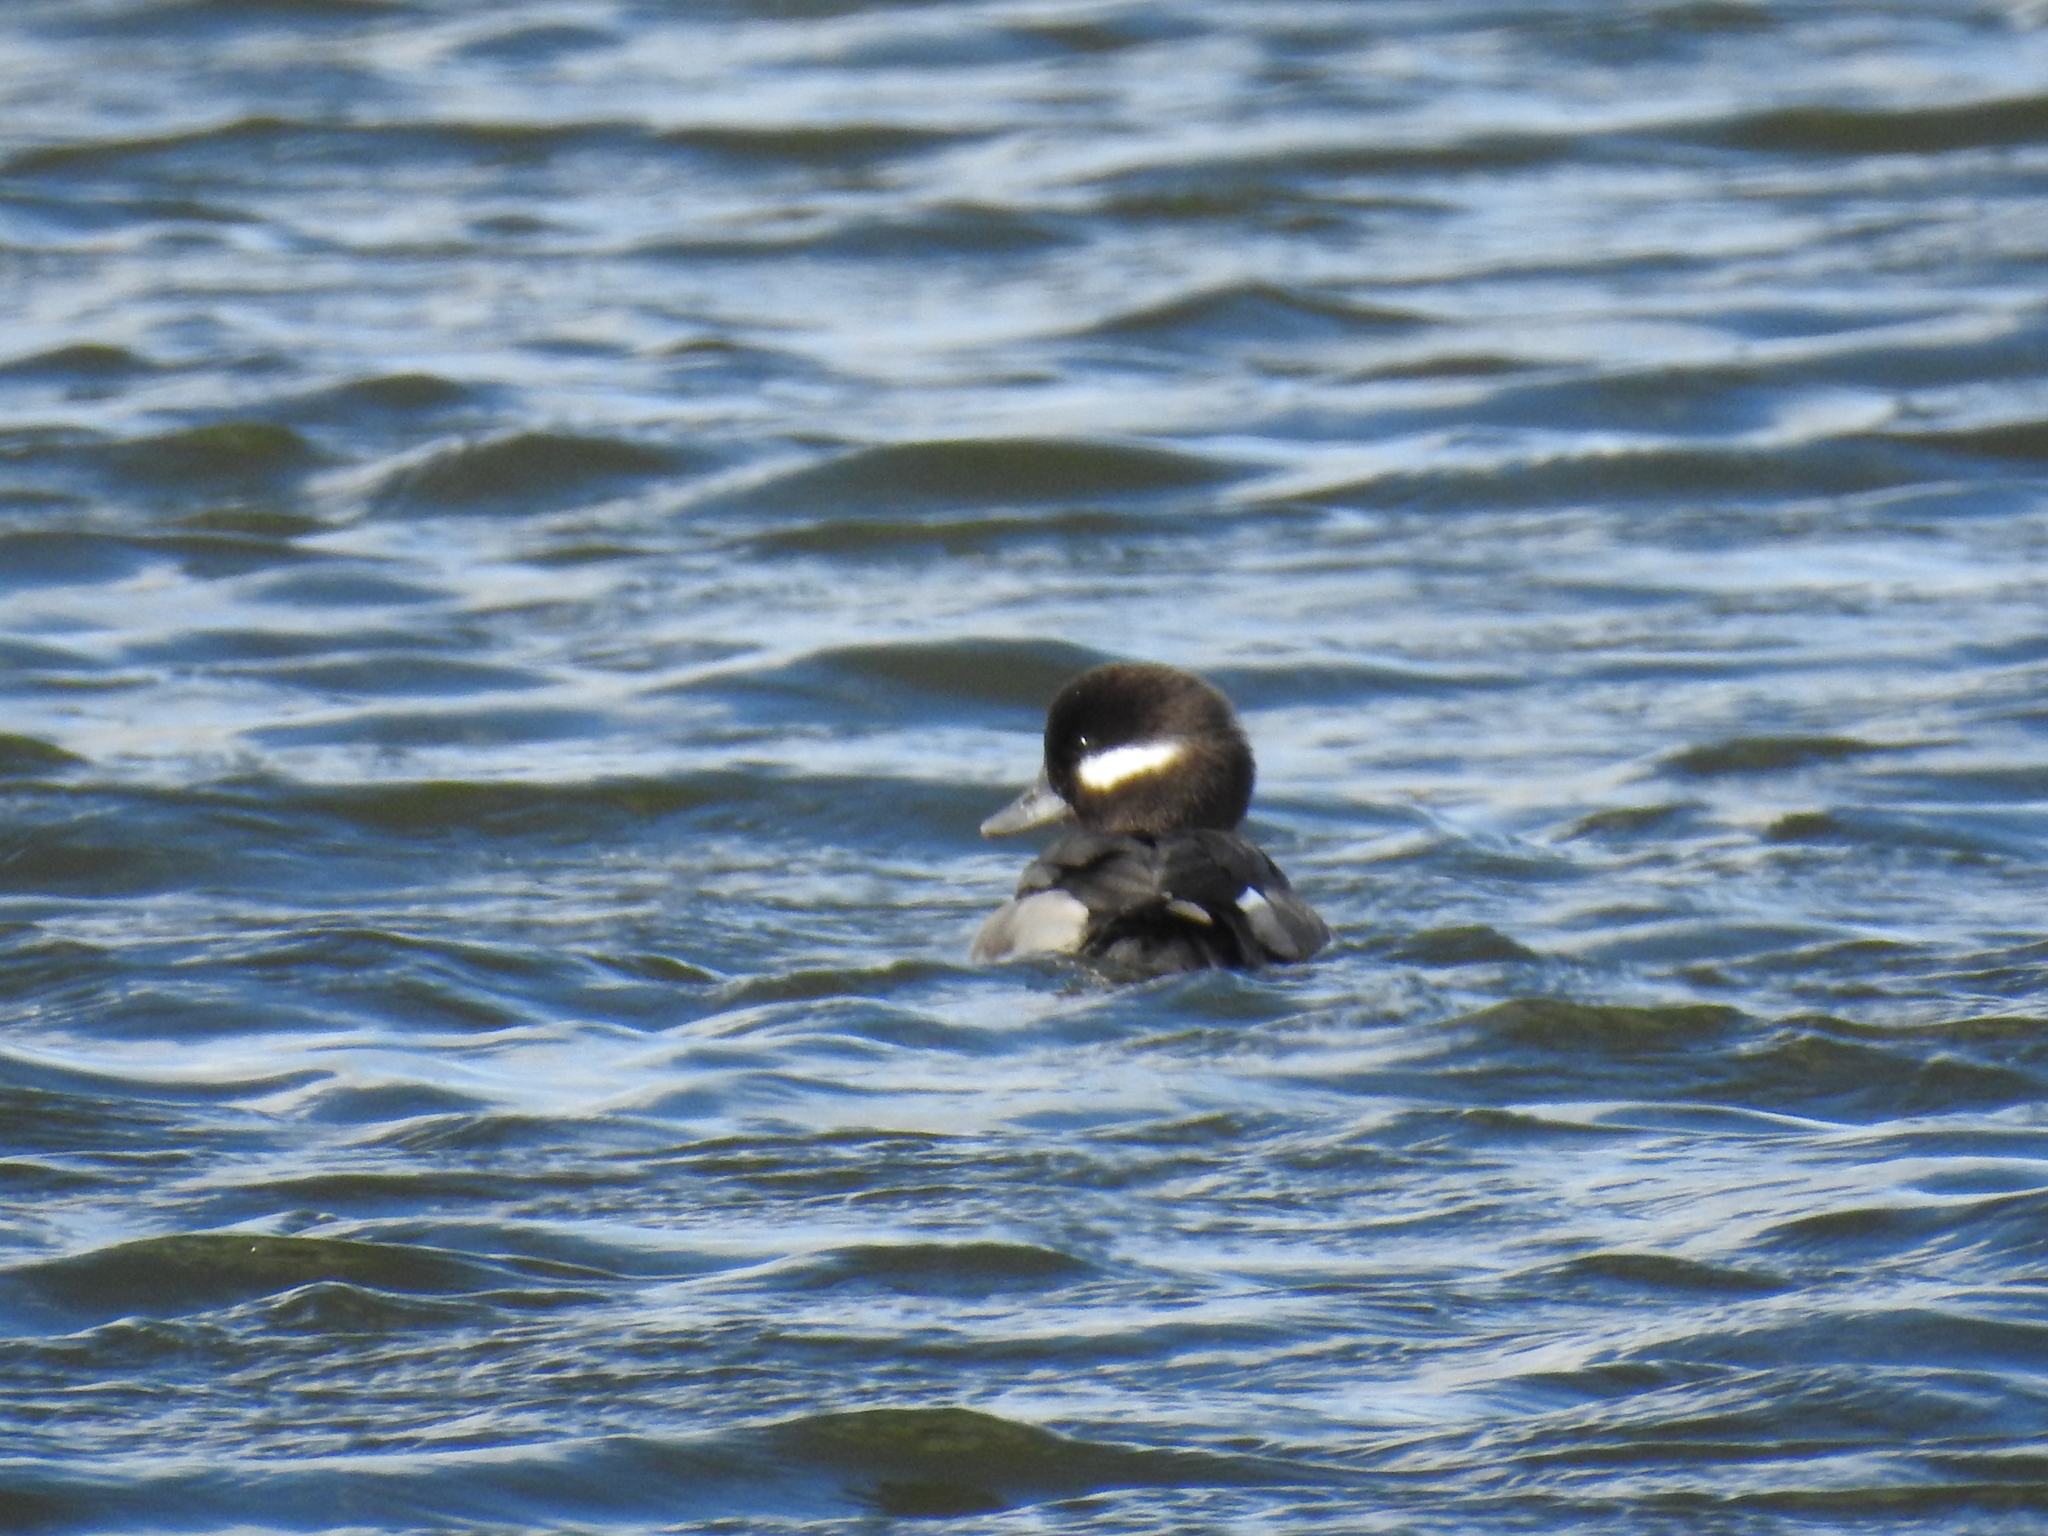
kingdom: Animalia
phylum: Chordata
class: Aves
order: Anseriformes
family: Anatidae
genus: Bucephala
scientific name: Bucephala albeola
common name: Bufflehead
